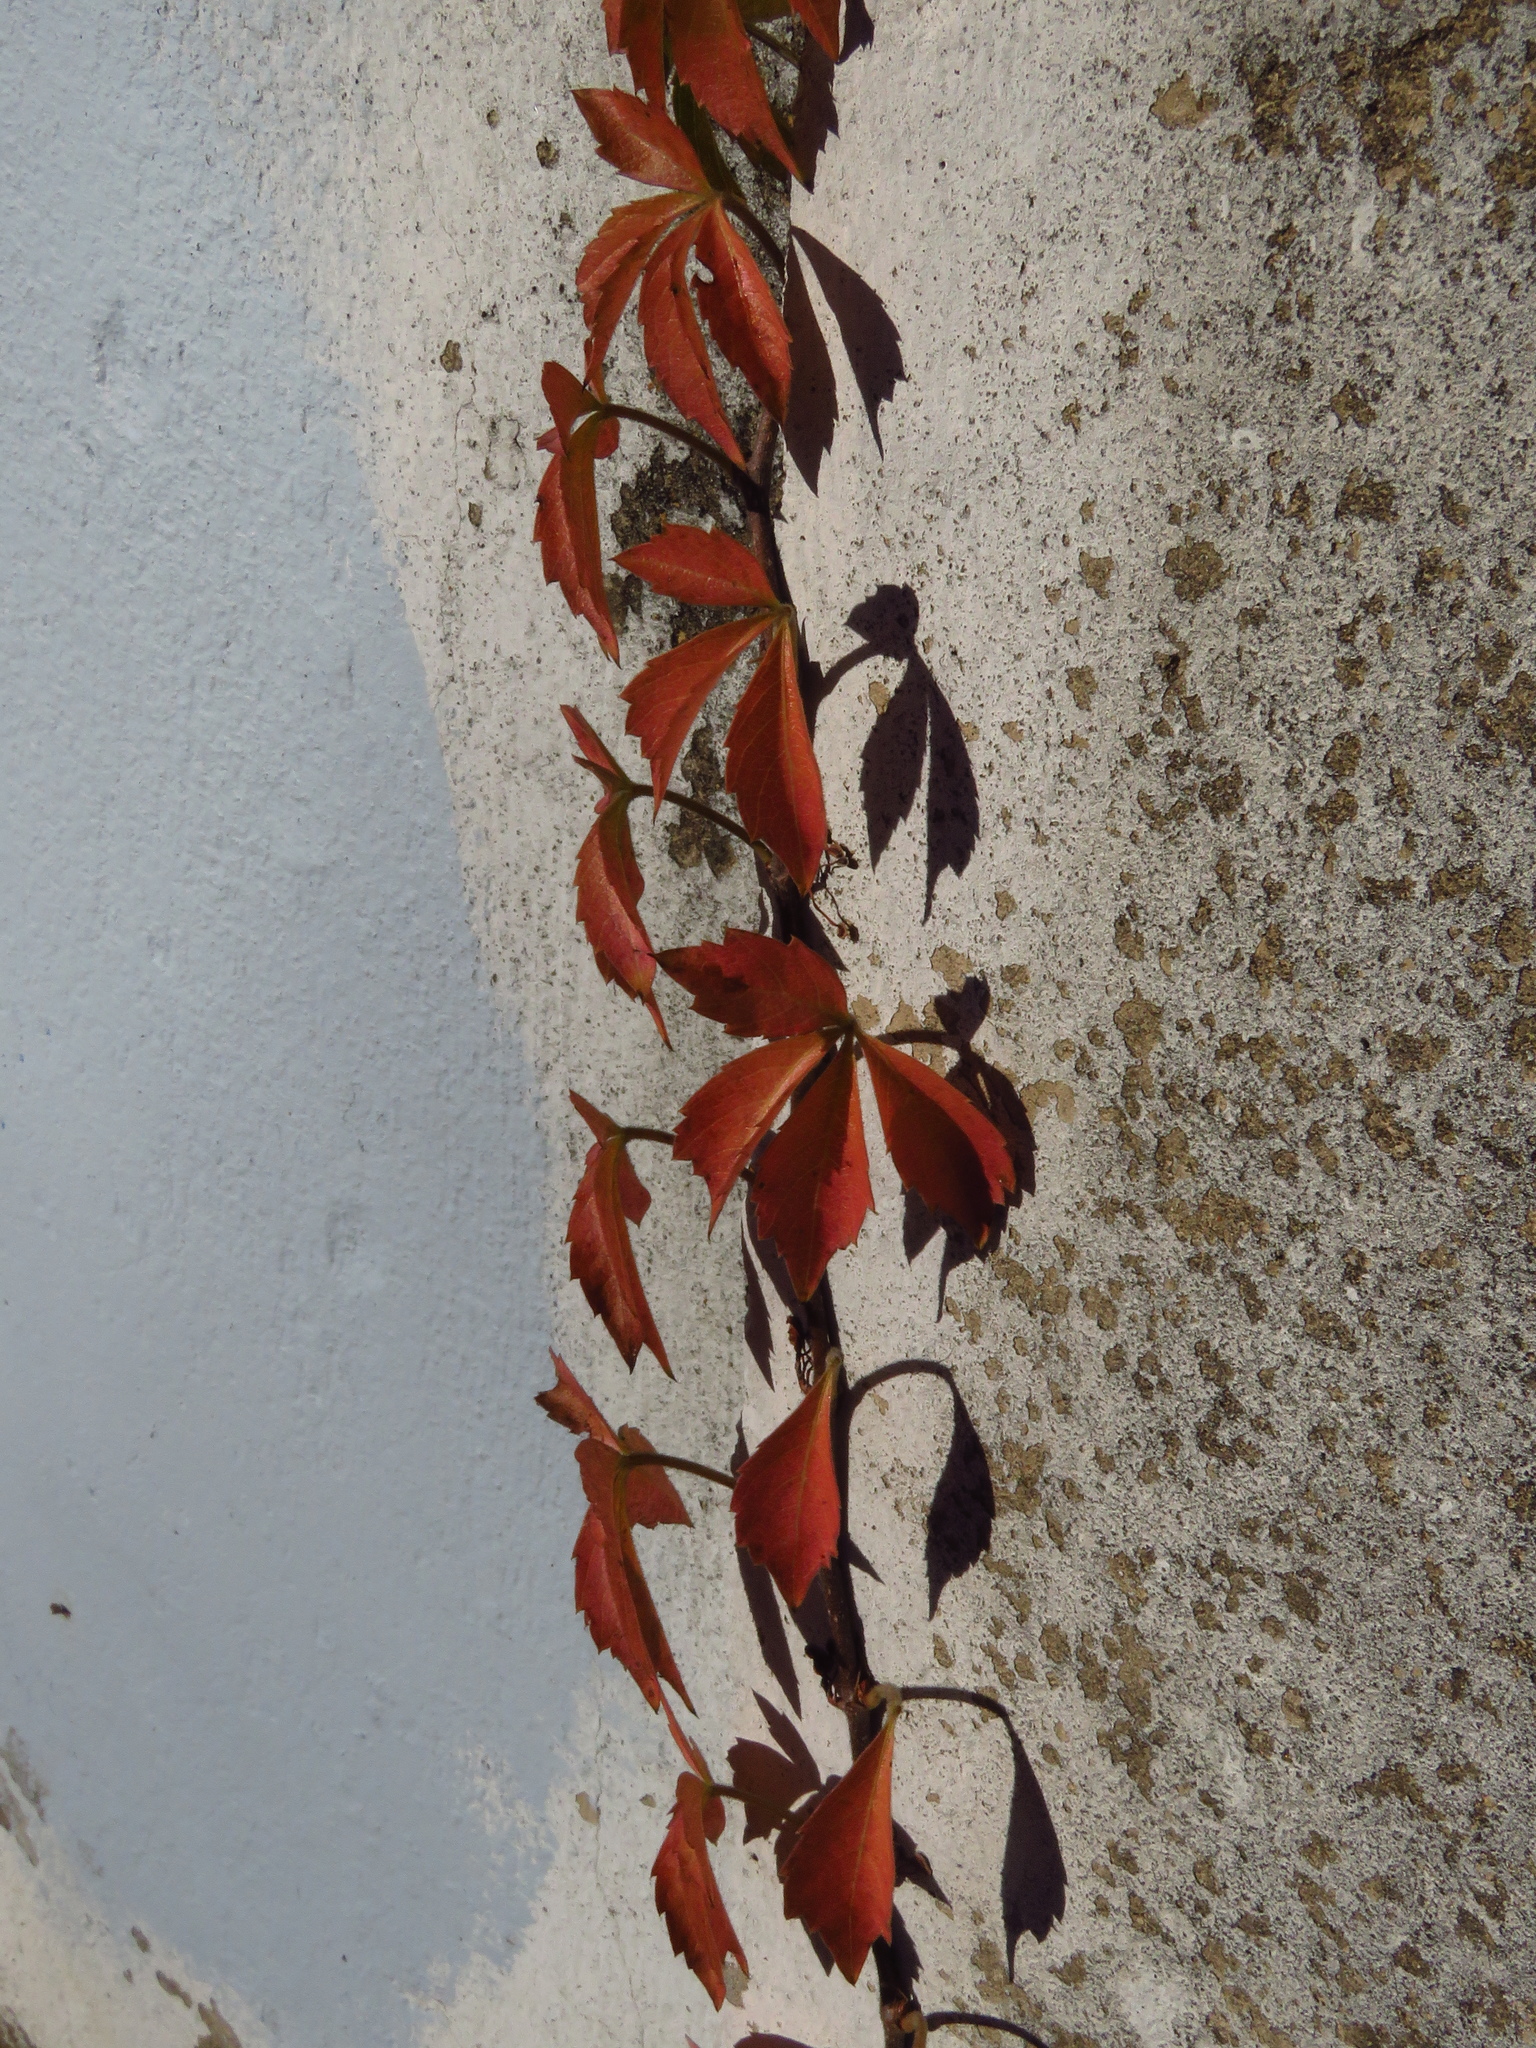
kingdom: Plantae
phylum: Tracheophyta
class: Magnoliopsida
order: Vitales
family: Vitaceae
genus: Parthenocissus
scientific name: Parthenocissus quinquefolia
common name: Virginia-creeper
